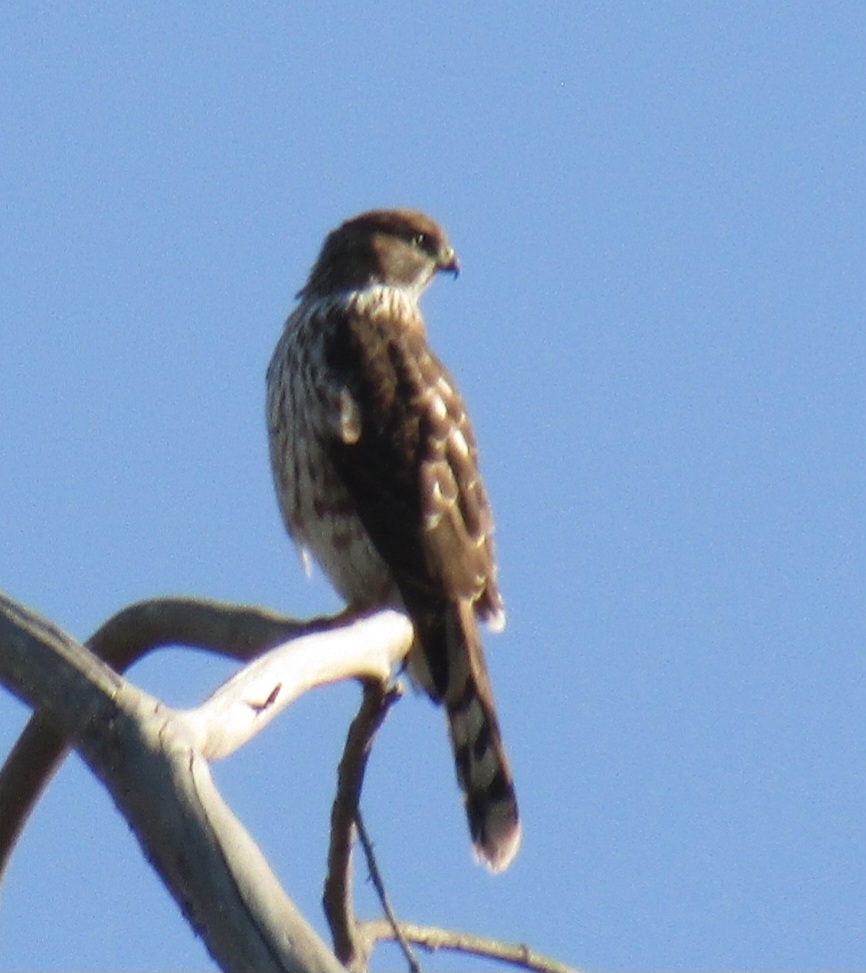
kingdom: Animalia
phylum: Chordata
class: Aves
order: Accipitriformes
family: Accipitridae
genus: Accipiter
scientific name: Accipiter cooperii
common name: Cooper's hawk
